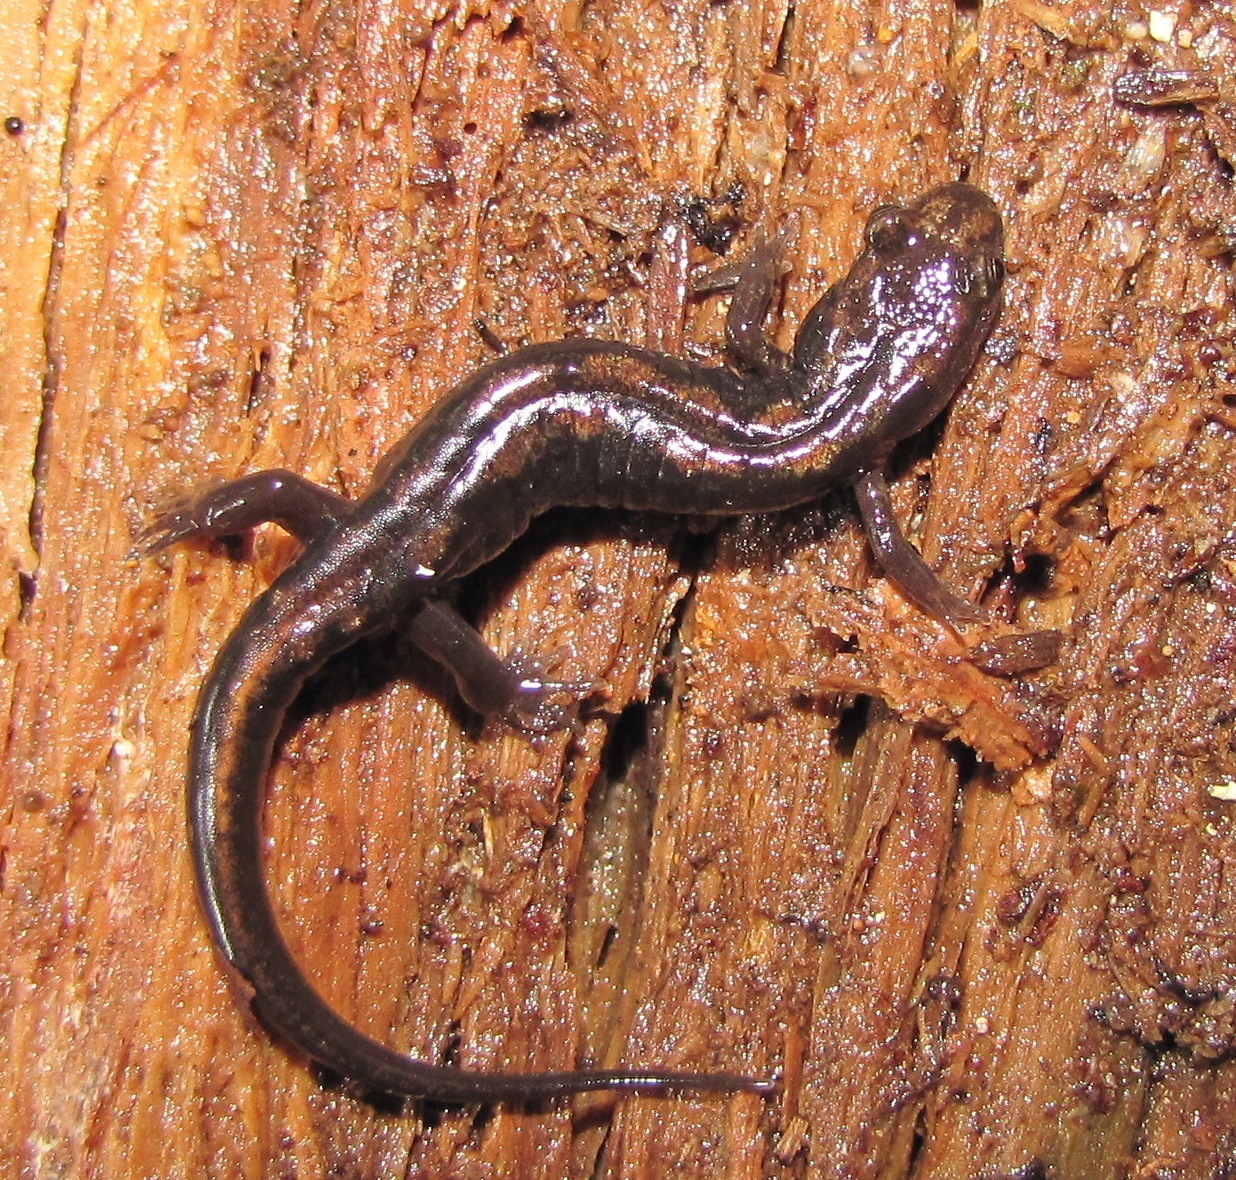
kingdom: Animalia
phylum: Chordata
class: Amphibia
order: Caudata
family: Plethodontidae
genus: Desmognathus
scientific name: Desmognathus carolinensis
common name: Carolina mountain dusky salamander
